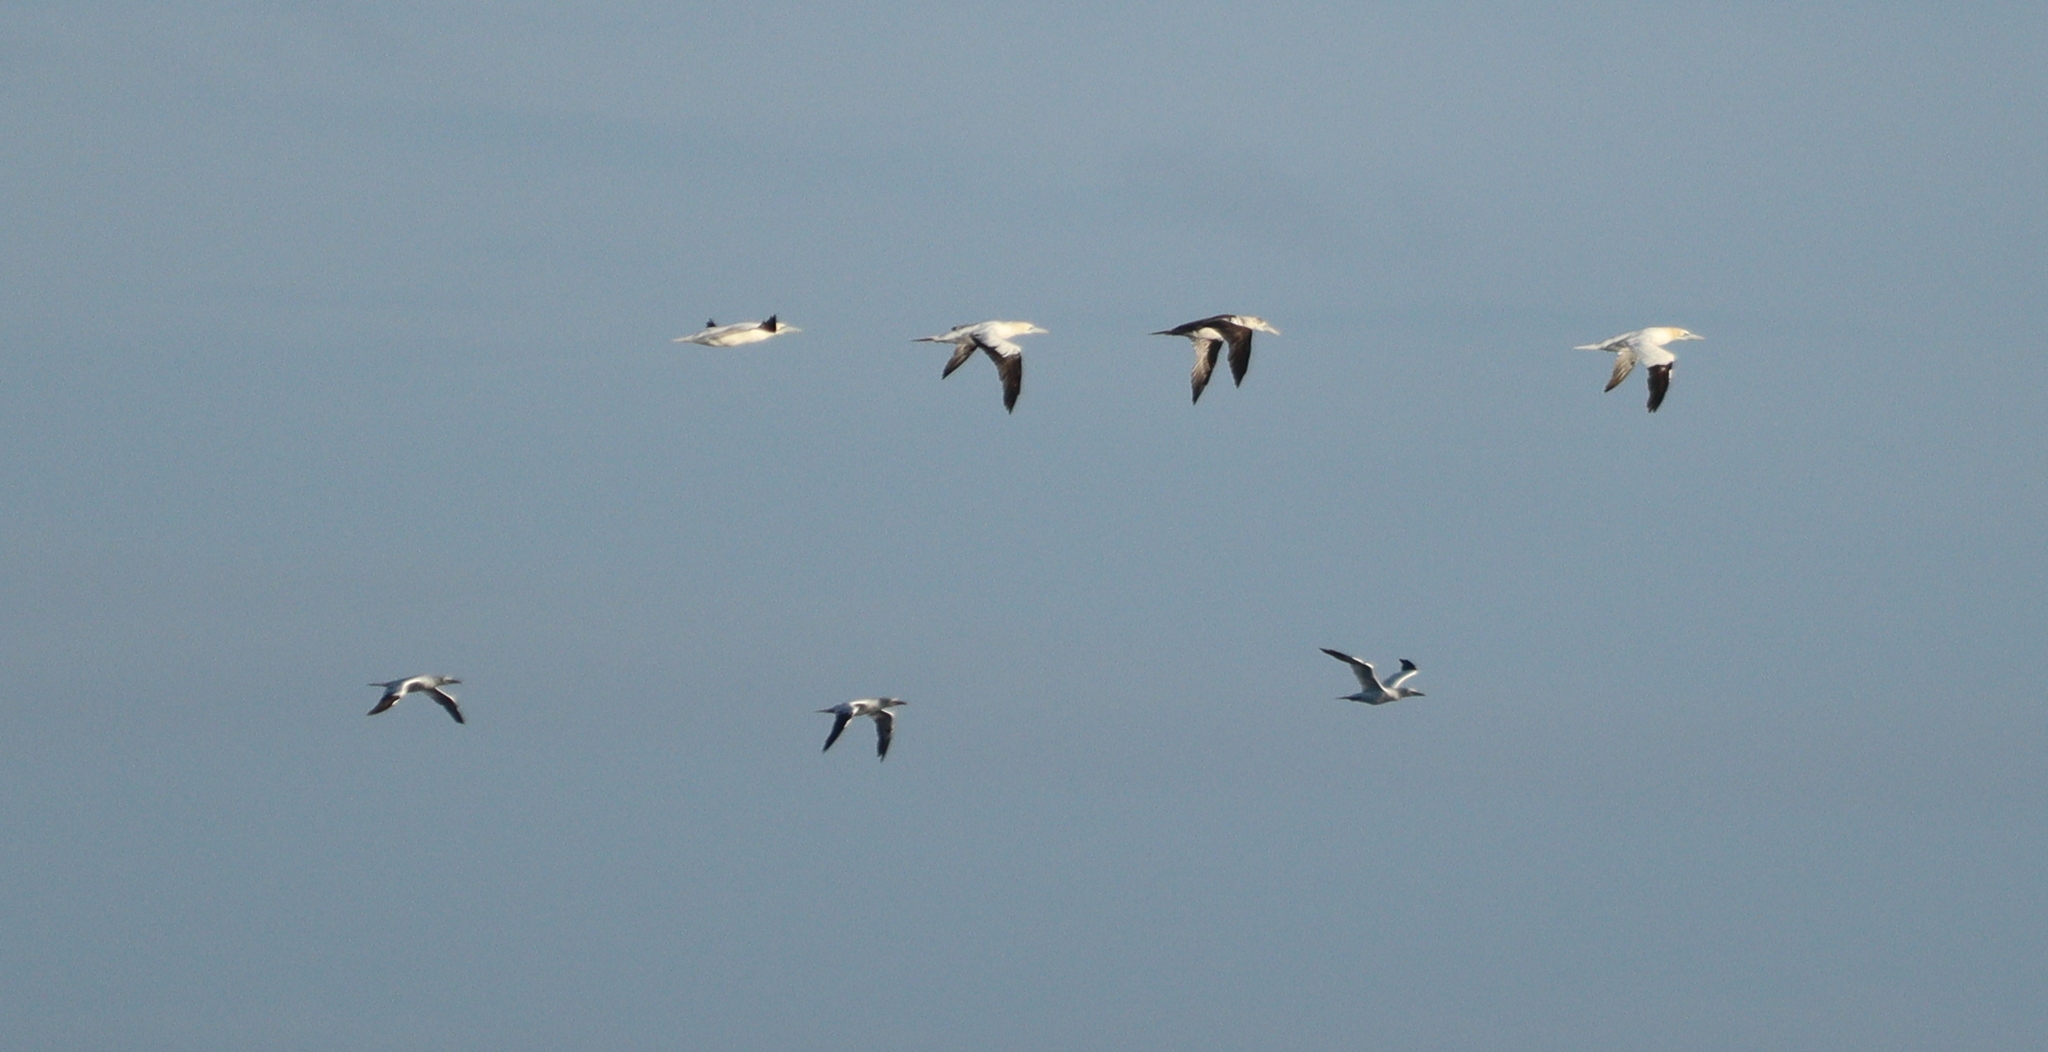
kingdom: Animalia
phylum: Chordata
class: Aves
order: Suliformes
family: Sulidae
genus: Morus
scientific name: Morus bassanus
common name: Northern gannet
